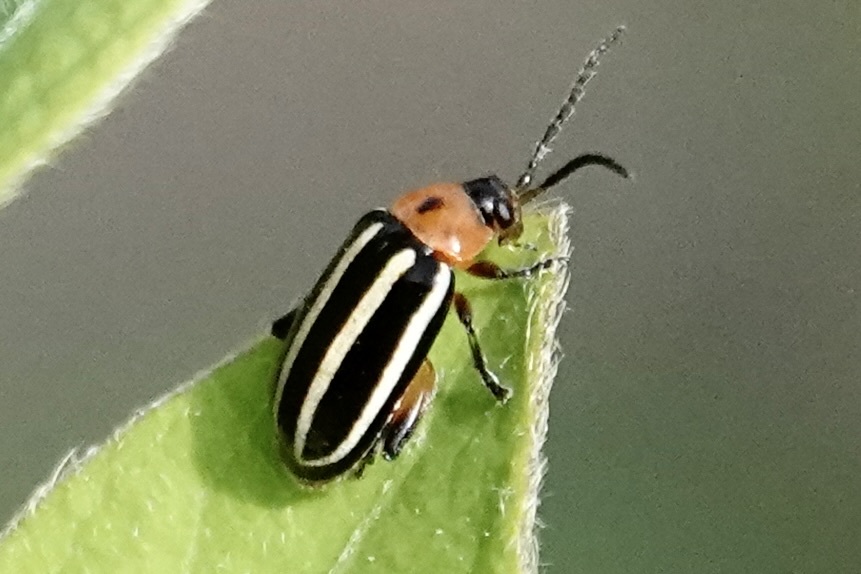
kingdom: Animalia
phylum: Arthropoda
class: Insecta
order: Coleoptera
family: Chrysomelidae
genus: Disonycha
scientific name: Disonycha glabrata
